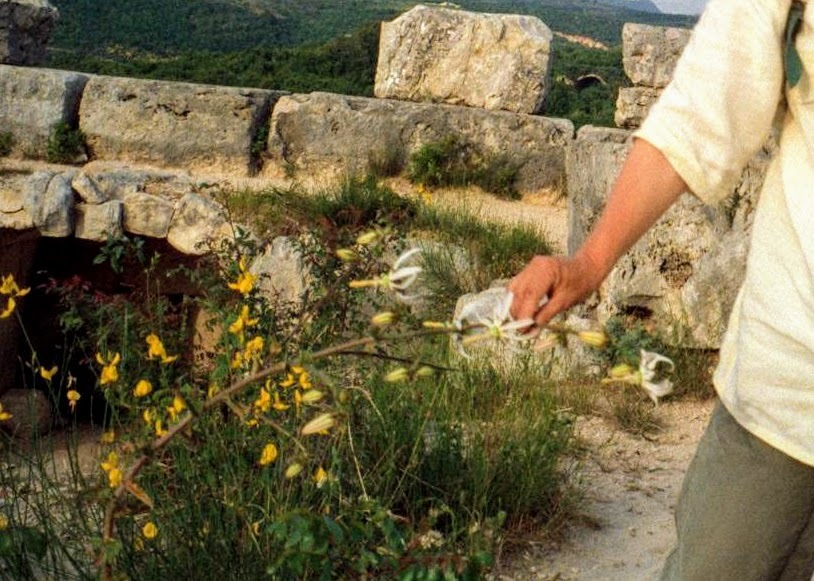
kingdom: Plantae
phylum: Tracheophyta
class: Magnoliopsida
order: Asterales
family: Campanulaceae
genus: Michauxia
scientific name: Michauxia campanuloides
